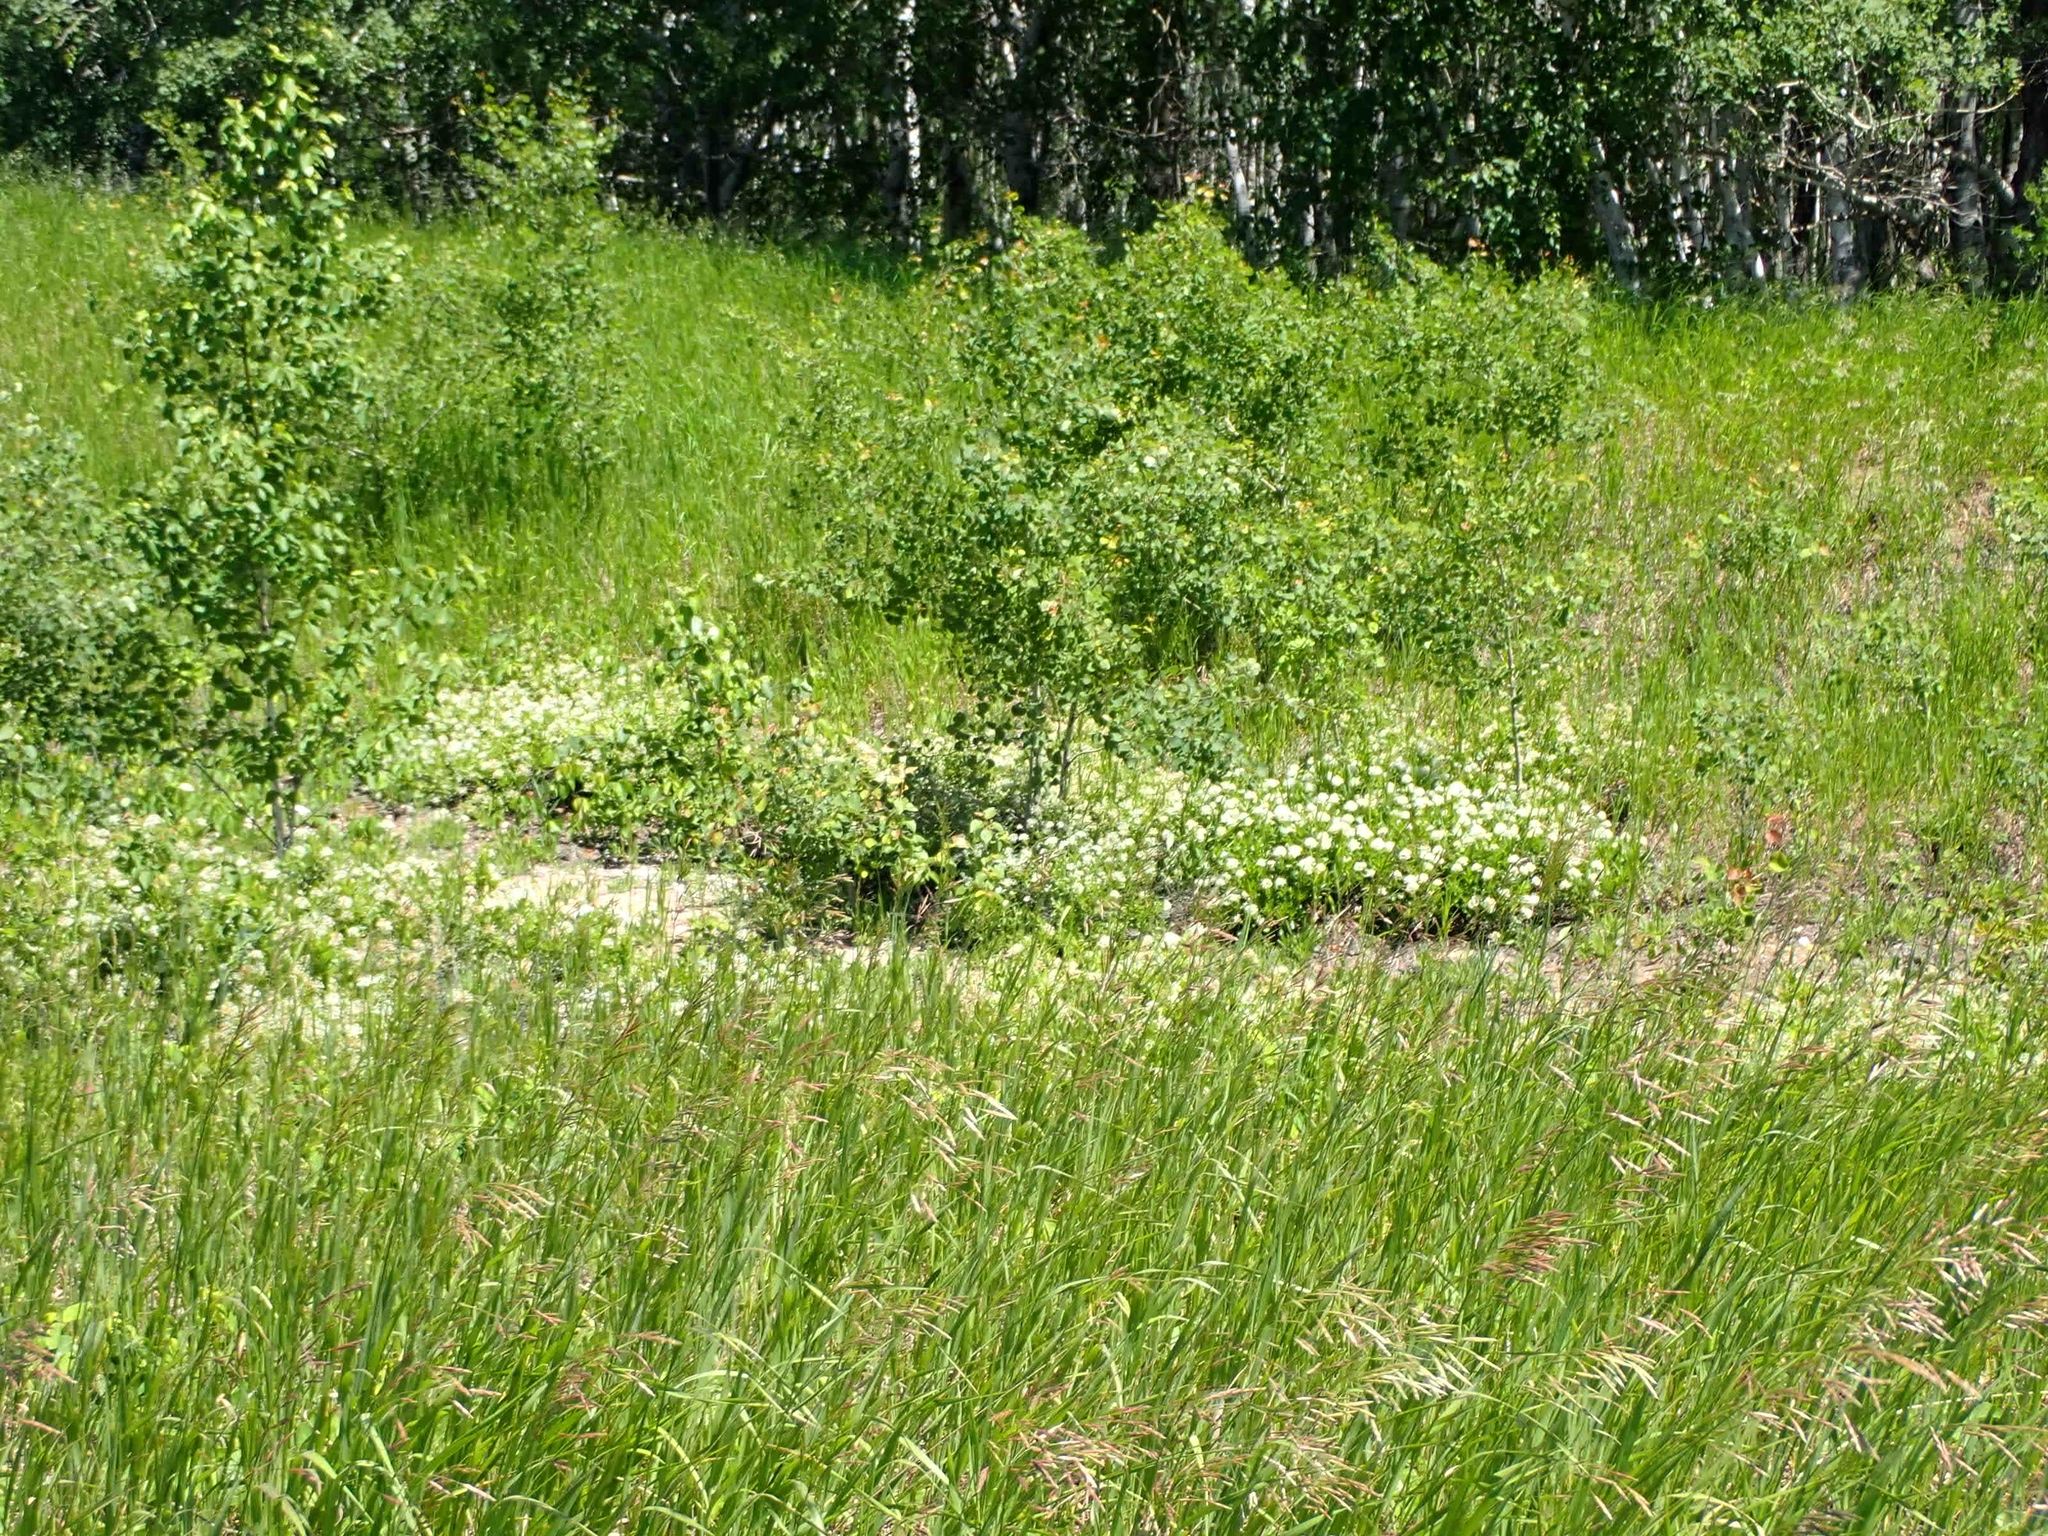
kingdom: Plantae
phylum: Tracheophyta
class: Magnoliopsida
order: Rosales
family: Rhamnaceae
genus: Ceanothus
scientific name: Ceanothus herbaceus
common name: Inland ceanothus
